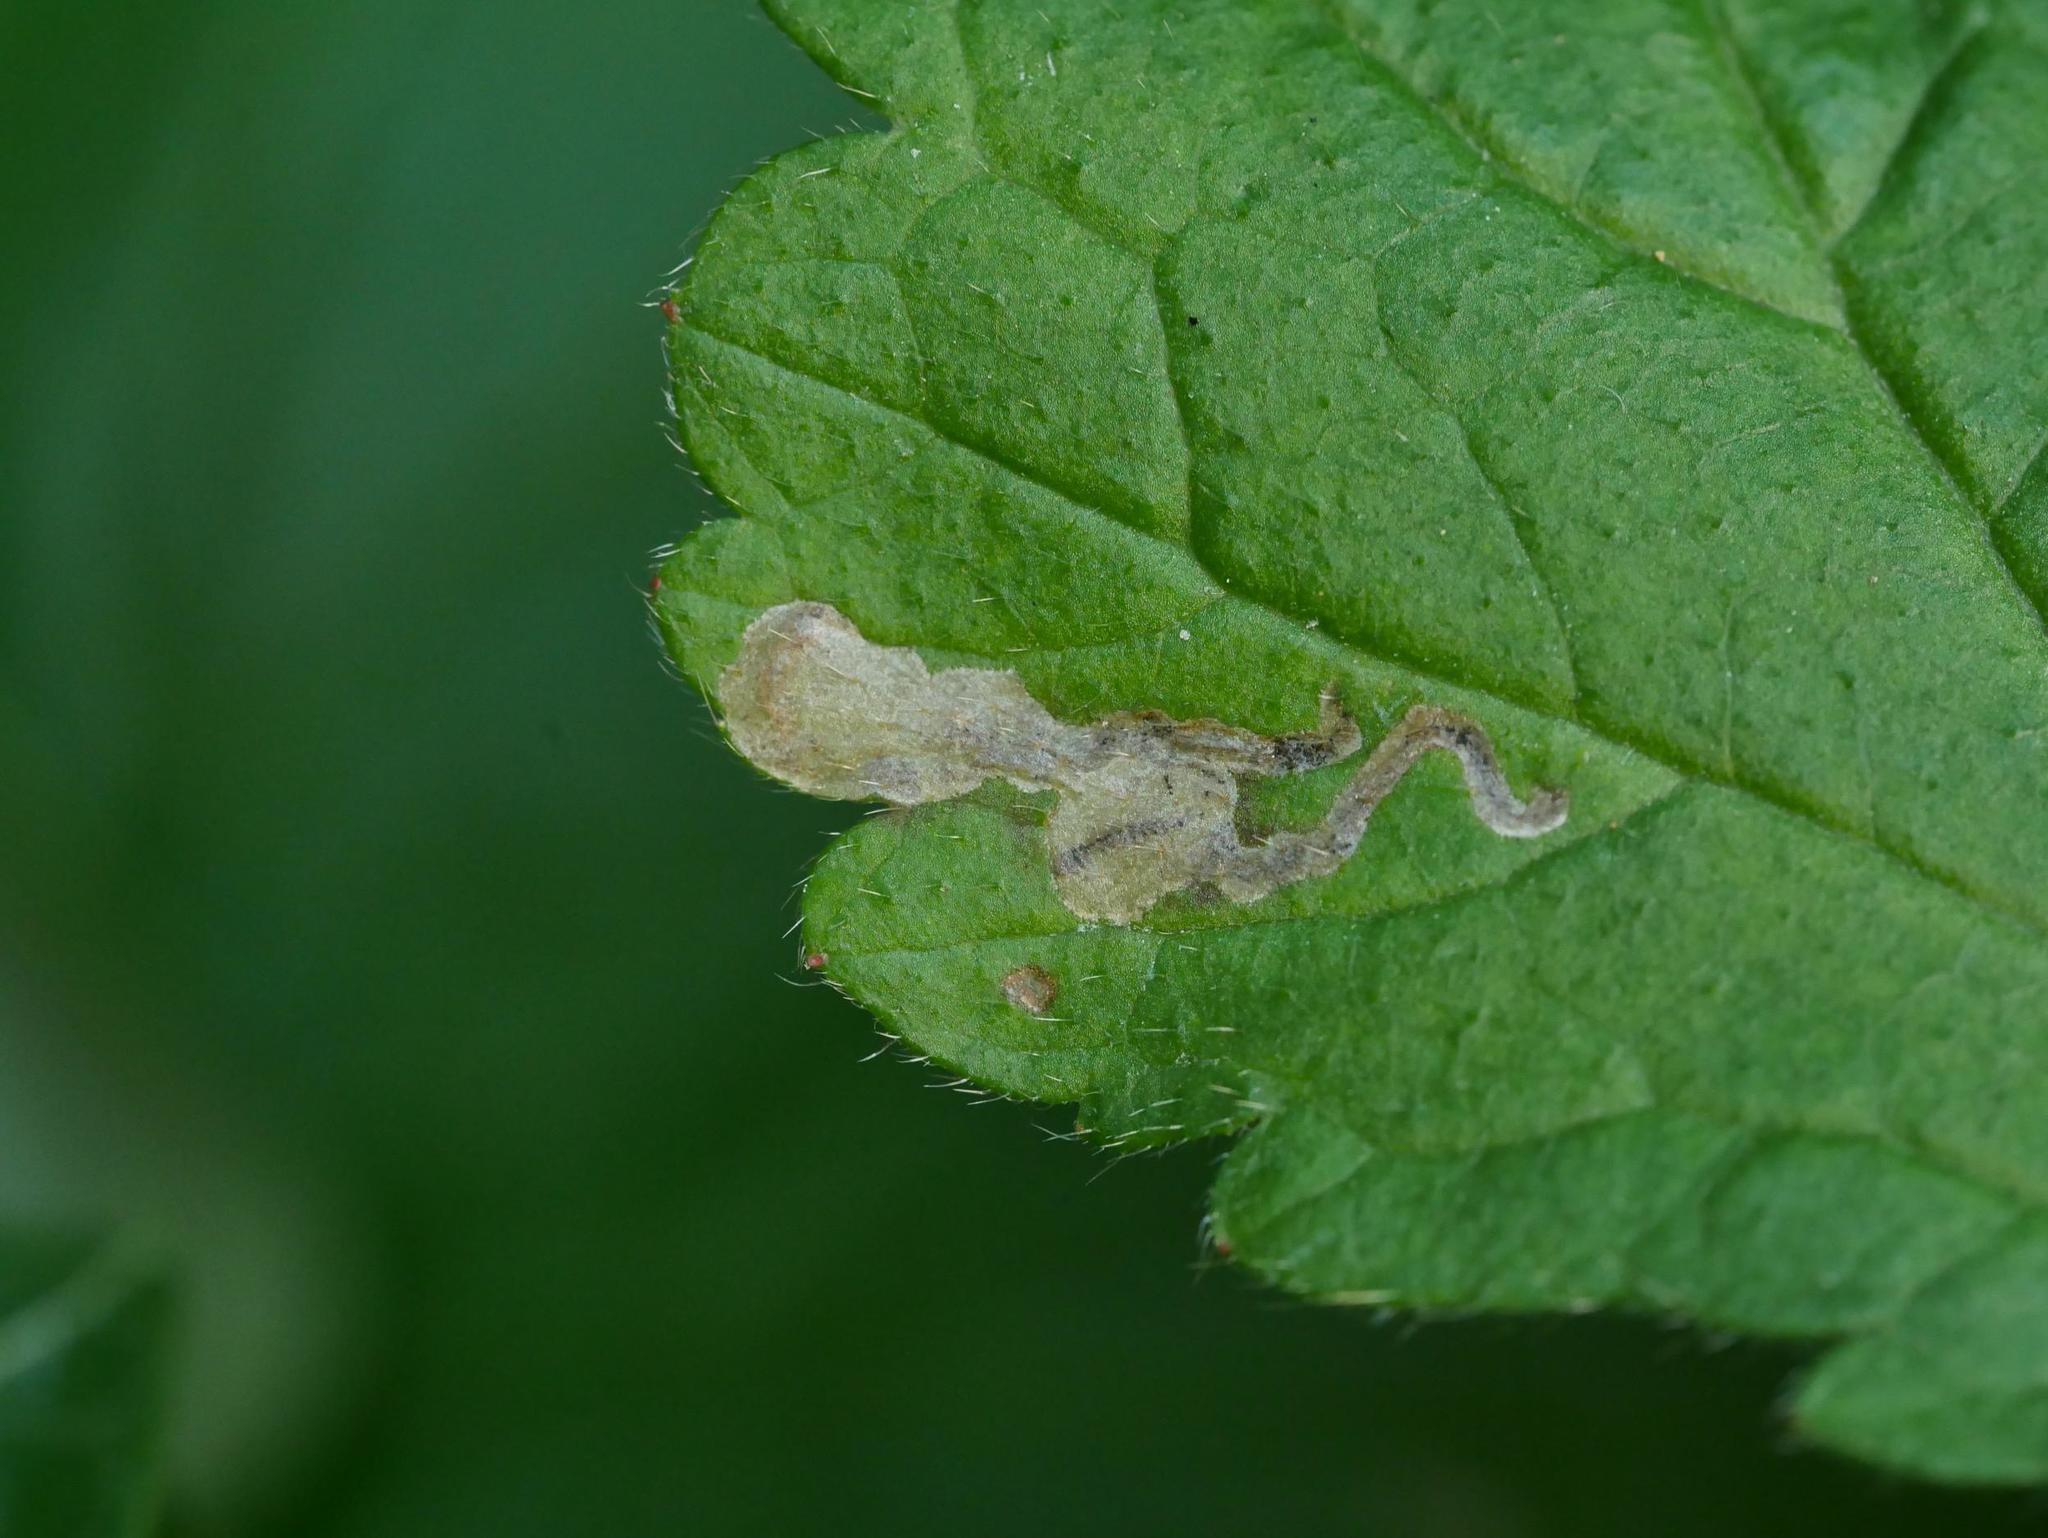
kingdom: Animalia
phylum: Arthropoda
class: Insecta
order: Hymenoptera
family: Tenthredinidae
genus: Metallus
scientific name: Metallus lanceolatus
